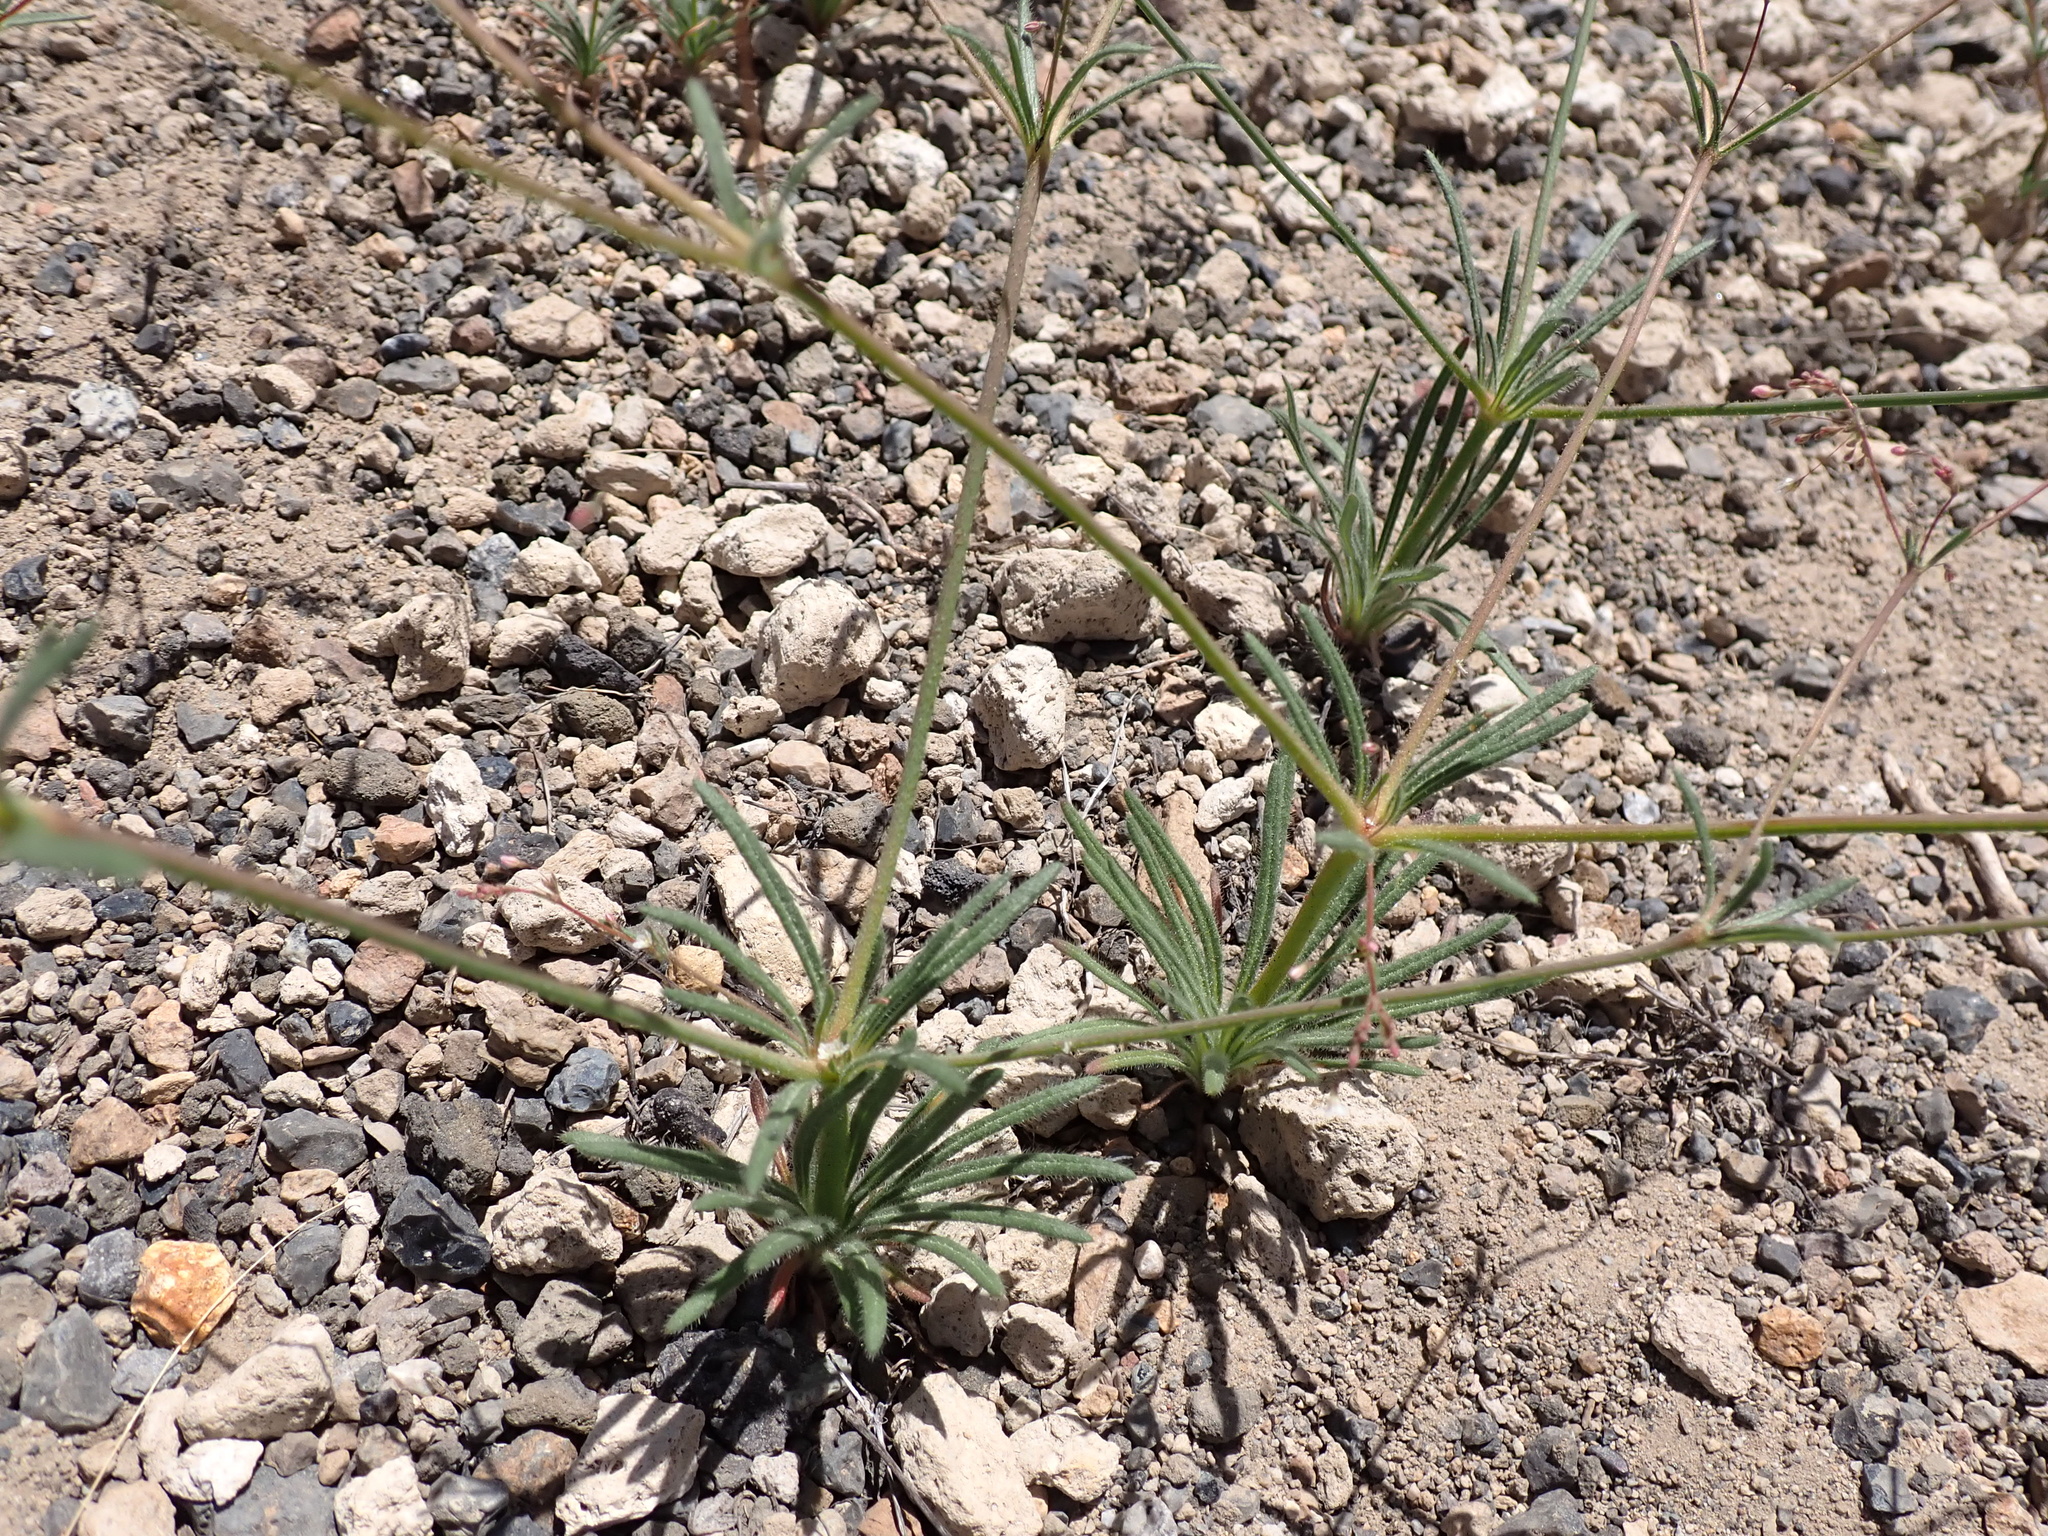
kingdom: Plantae
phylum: Tracheophyta
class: Magnoliopsida
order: Caryophyllales
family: Polygonaceae
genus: Oxytheca
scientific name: Oxytheca dendroidea
